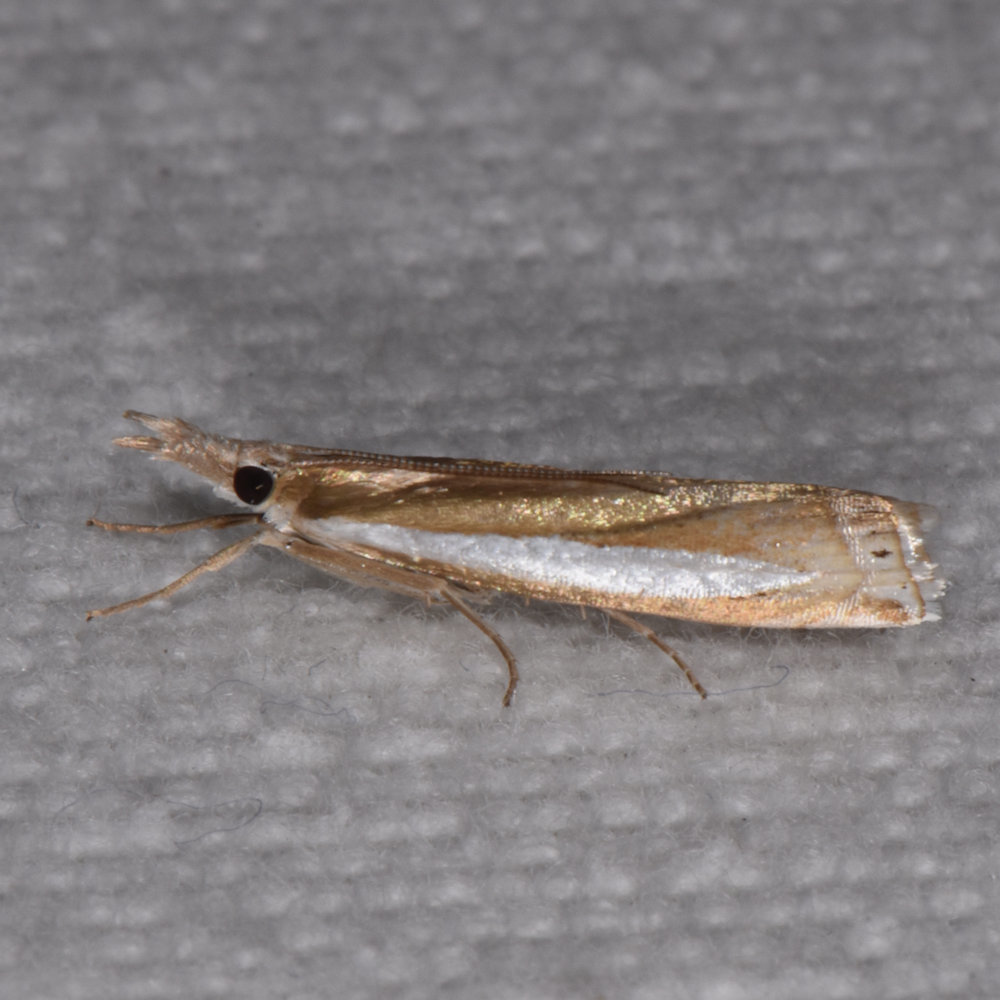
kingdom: Animalia
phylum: Arthropoda
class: Insecta
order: Lepidoptera
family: Crambidae
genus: Crambus
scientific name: Crambus praefectellus
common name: Common grass-veneer
